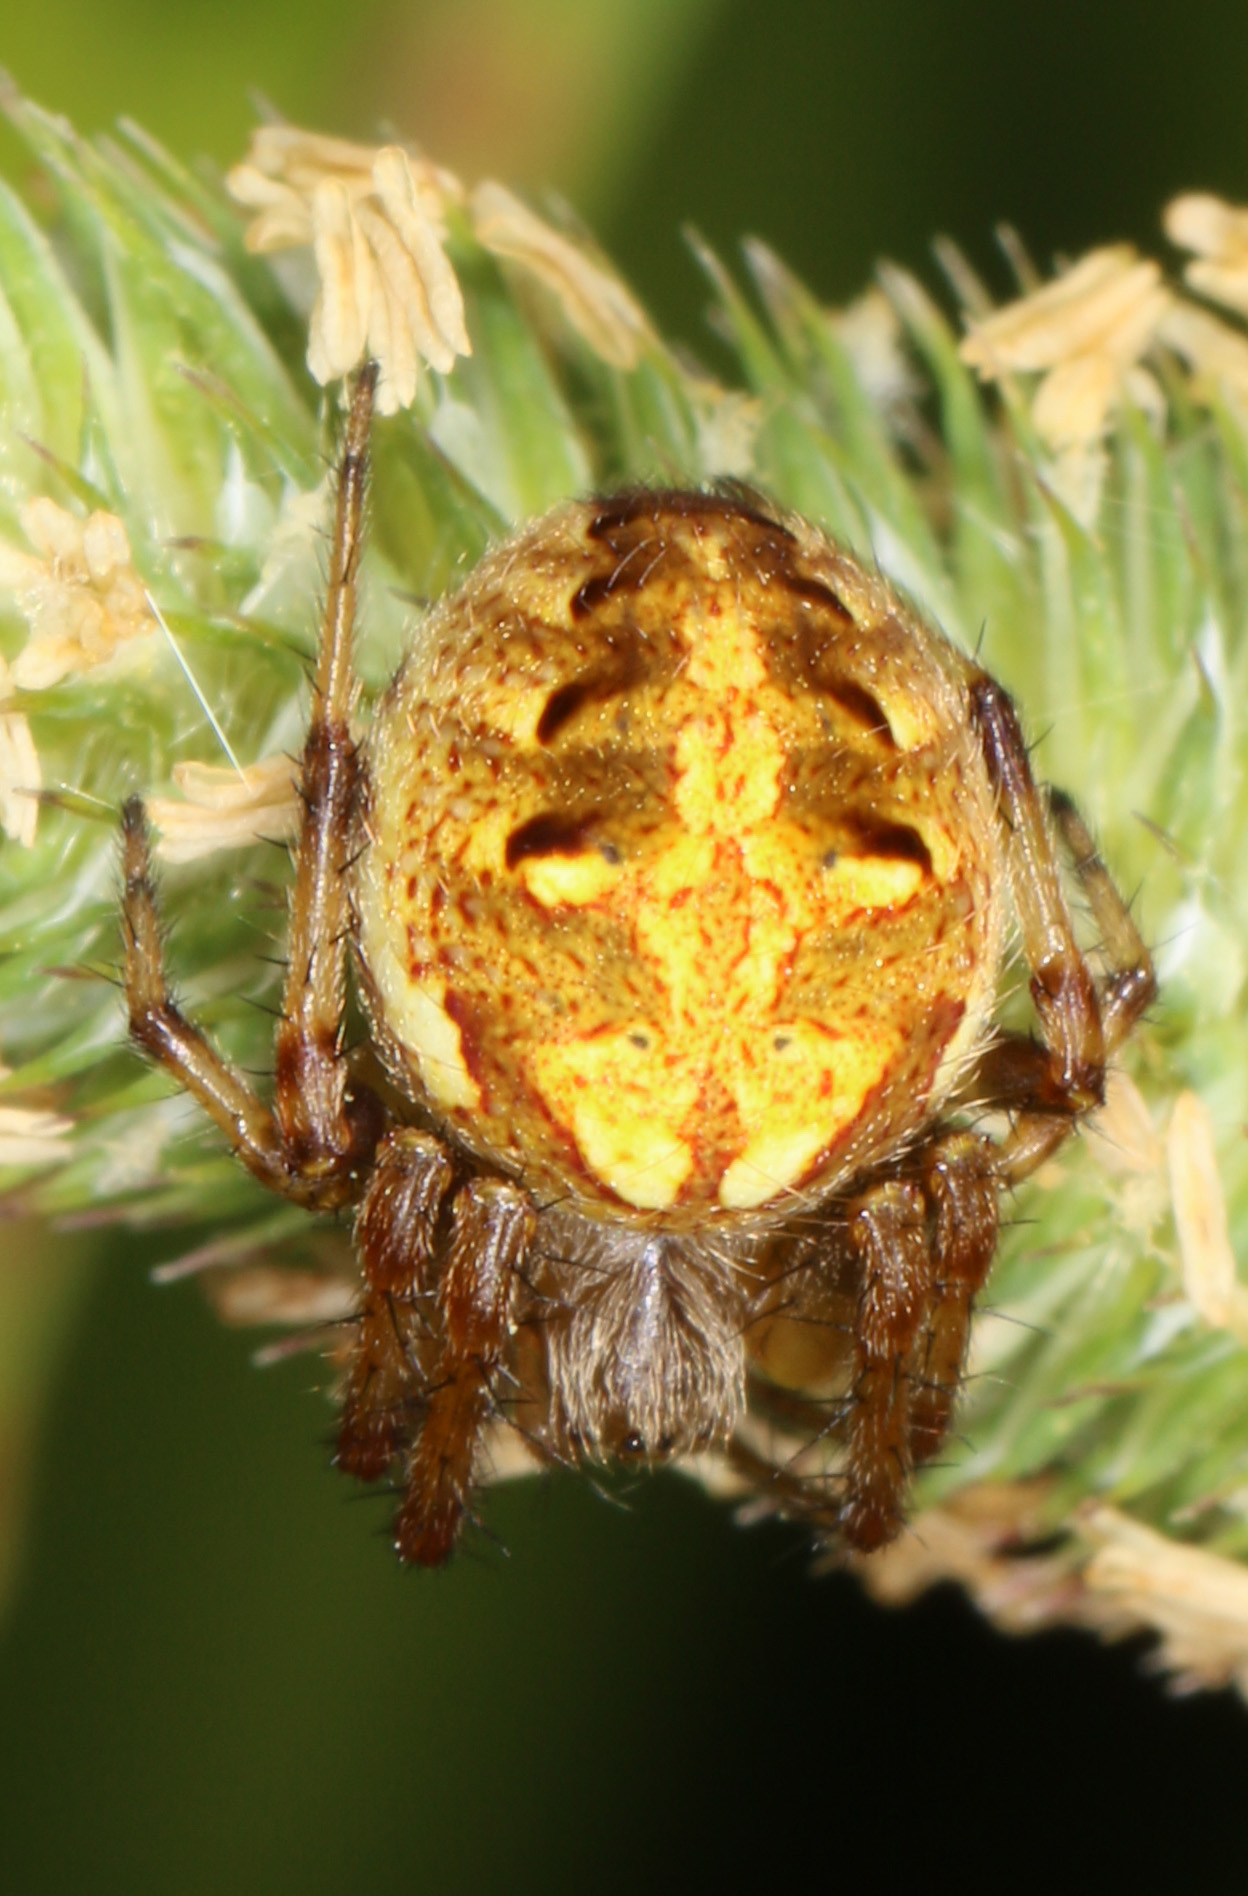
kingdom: Animalia
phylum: Arthropoda
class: Arachnida
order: Araneae
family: Araneidae
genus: Neoscona
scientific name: Neoscona arabesca
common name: Orb weavers
